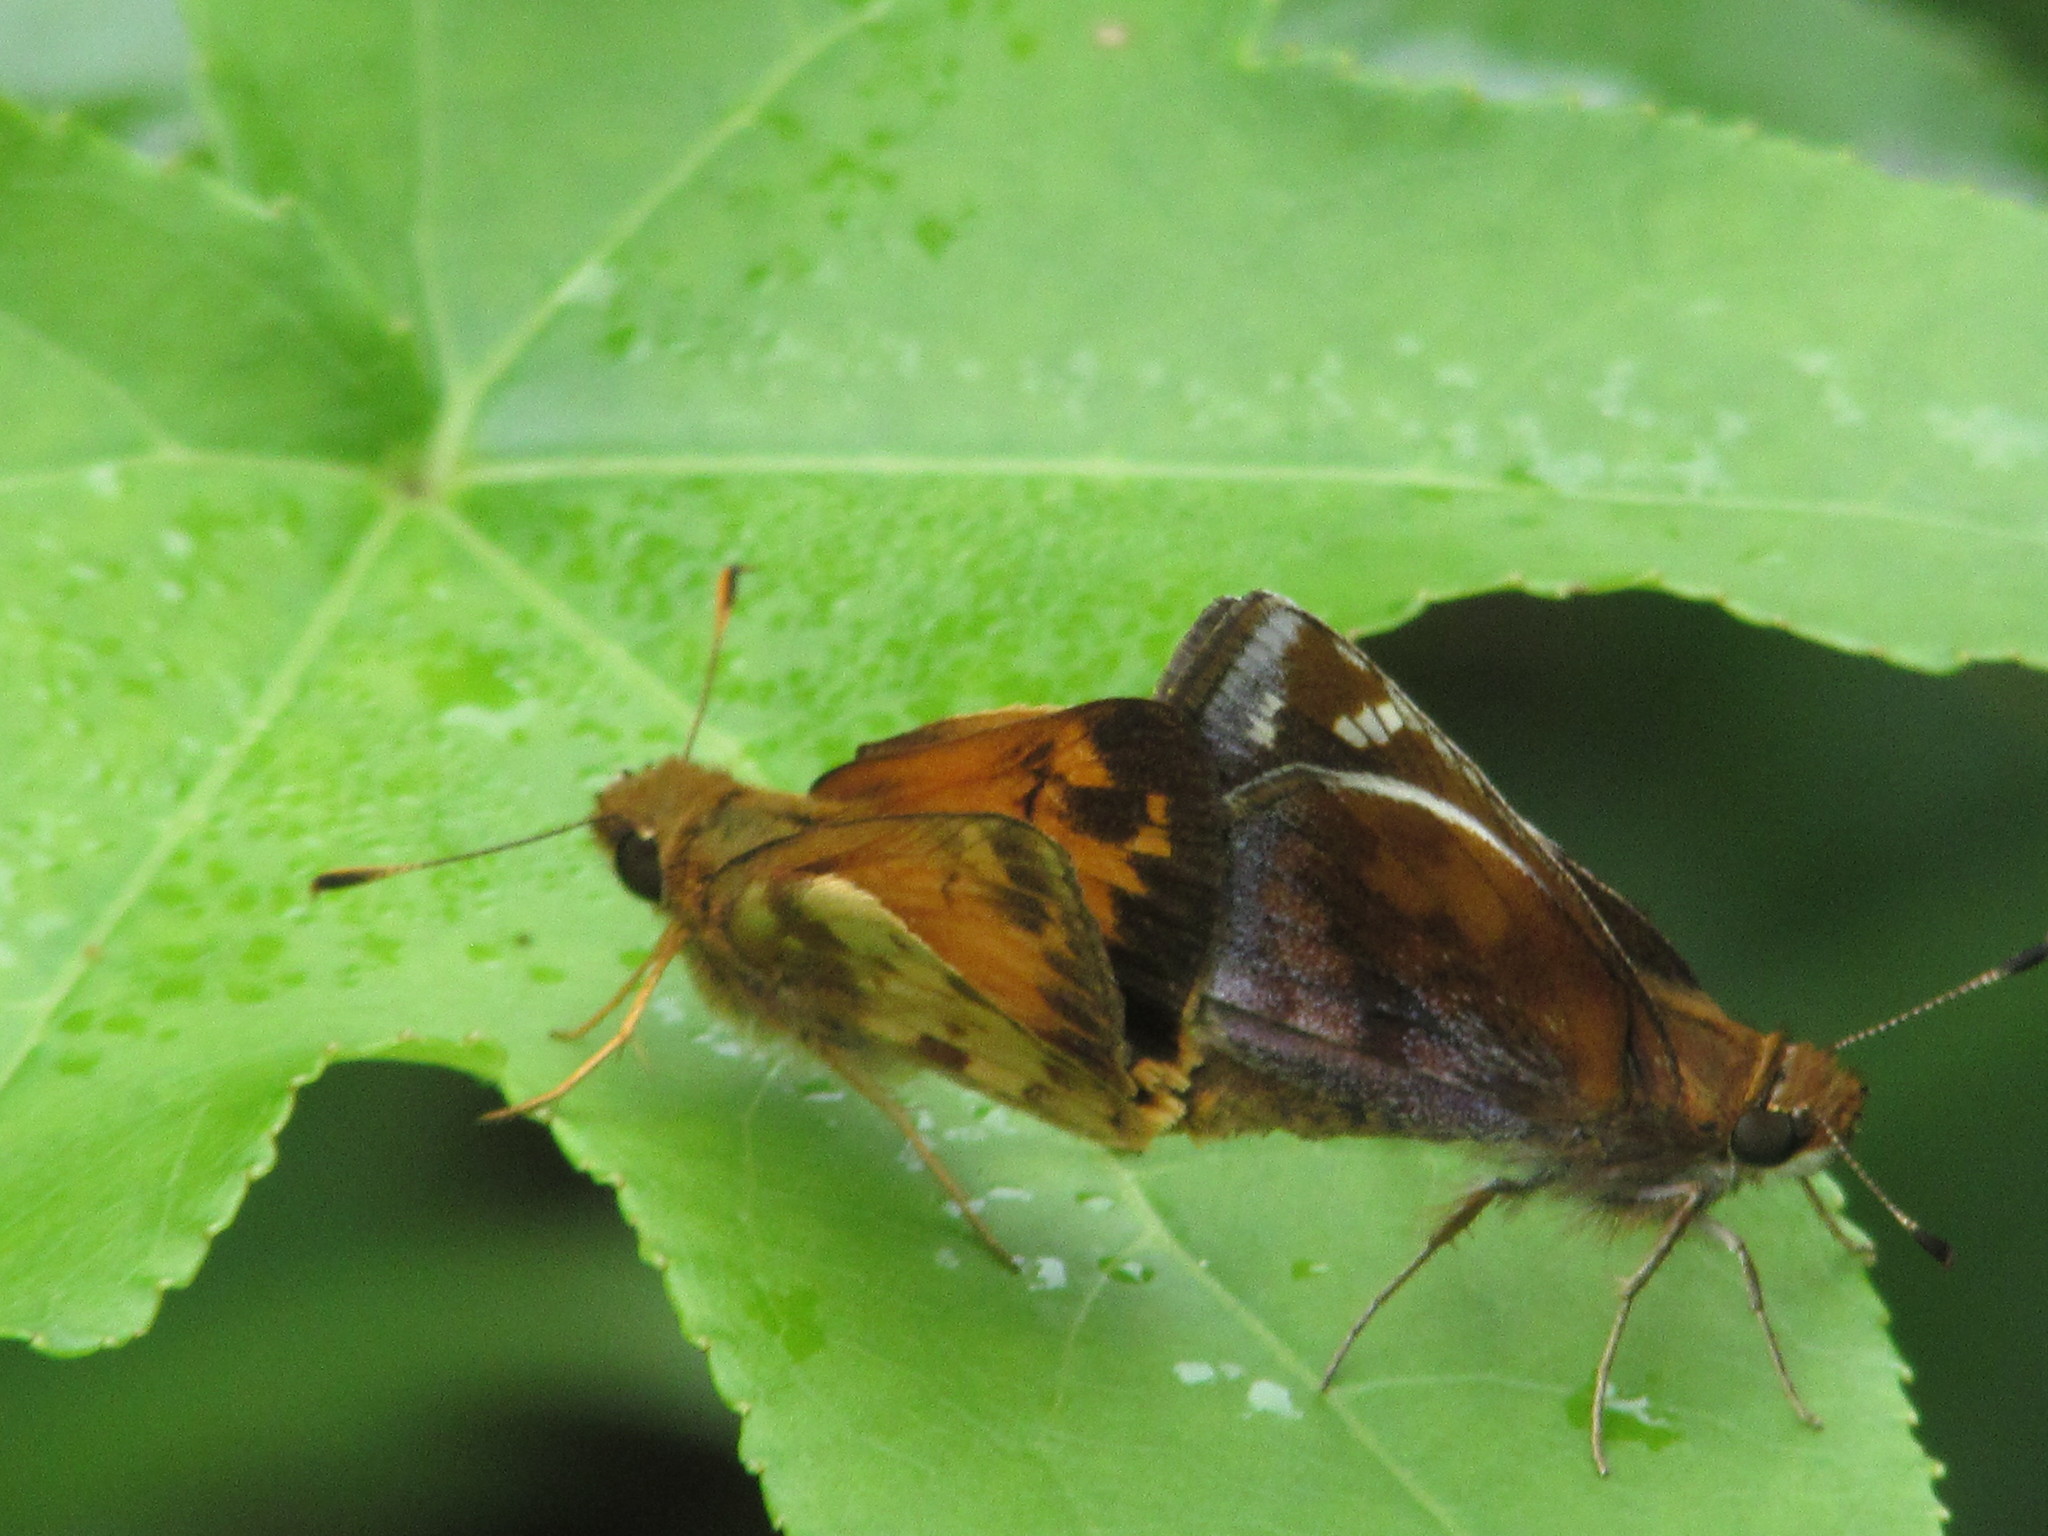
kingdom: Animalia
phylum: Arthropoda
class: Insecta
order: Lepidoptera
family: Hesperiidae
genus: Lon
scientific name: Lon zabulon
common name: Zabulon skipper
